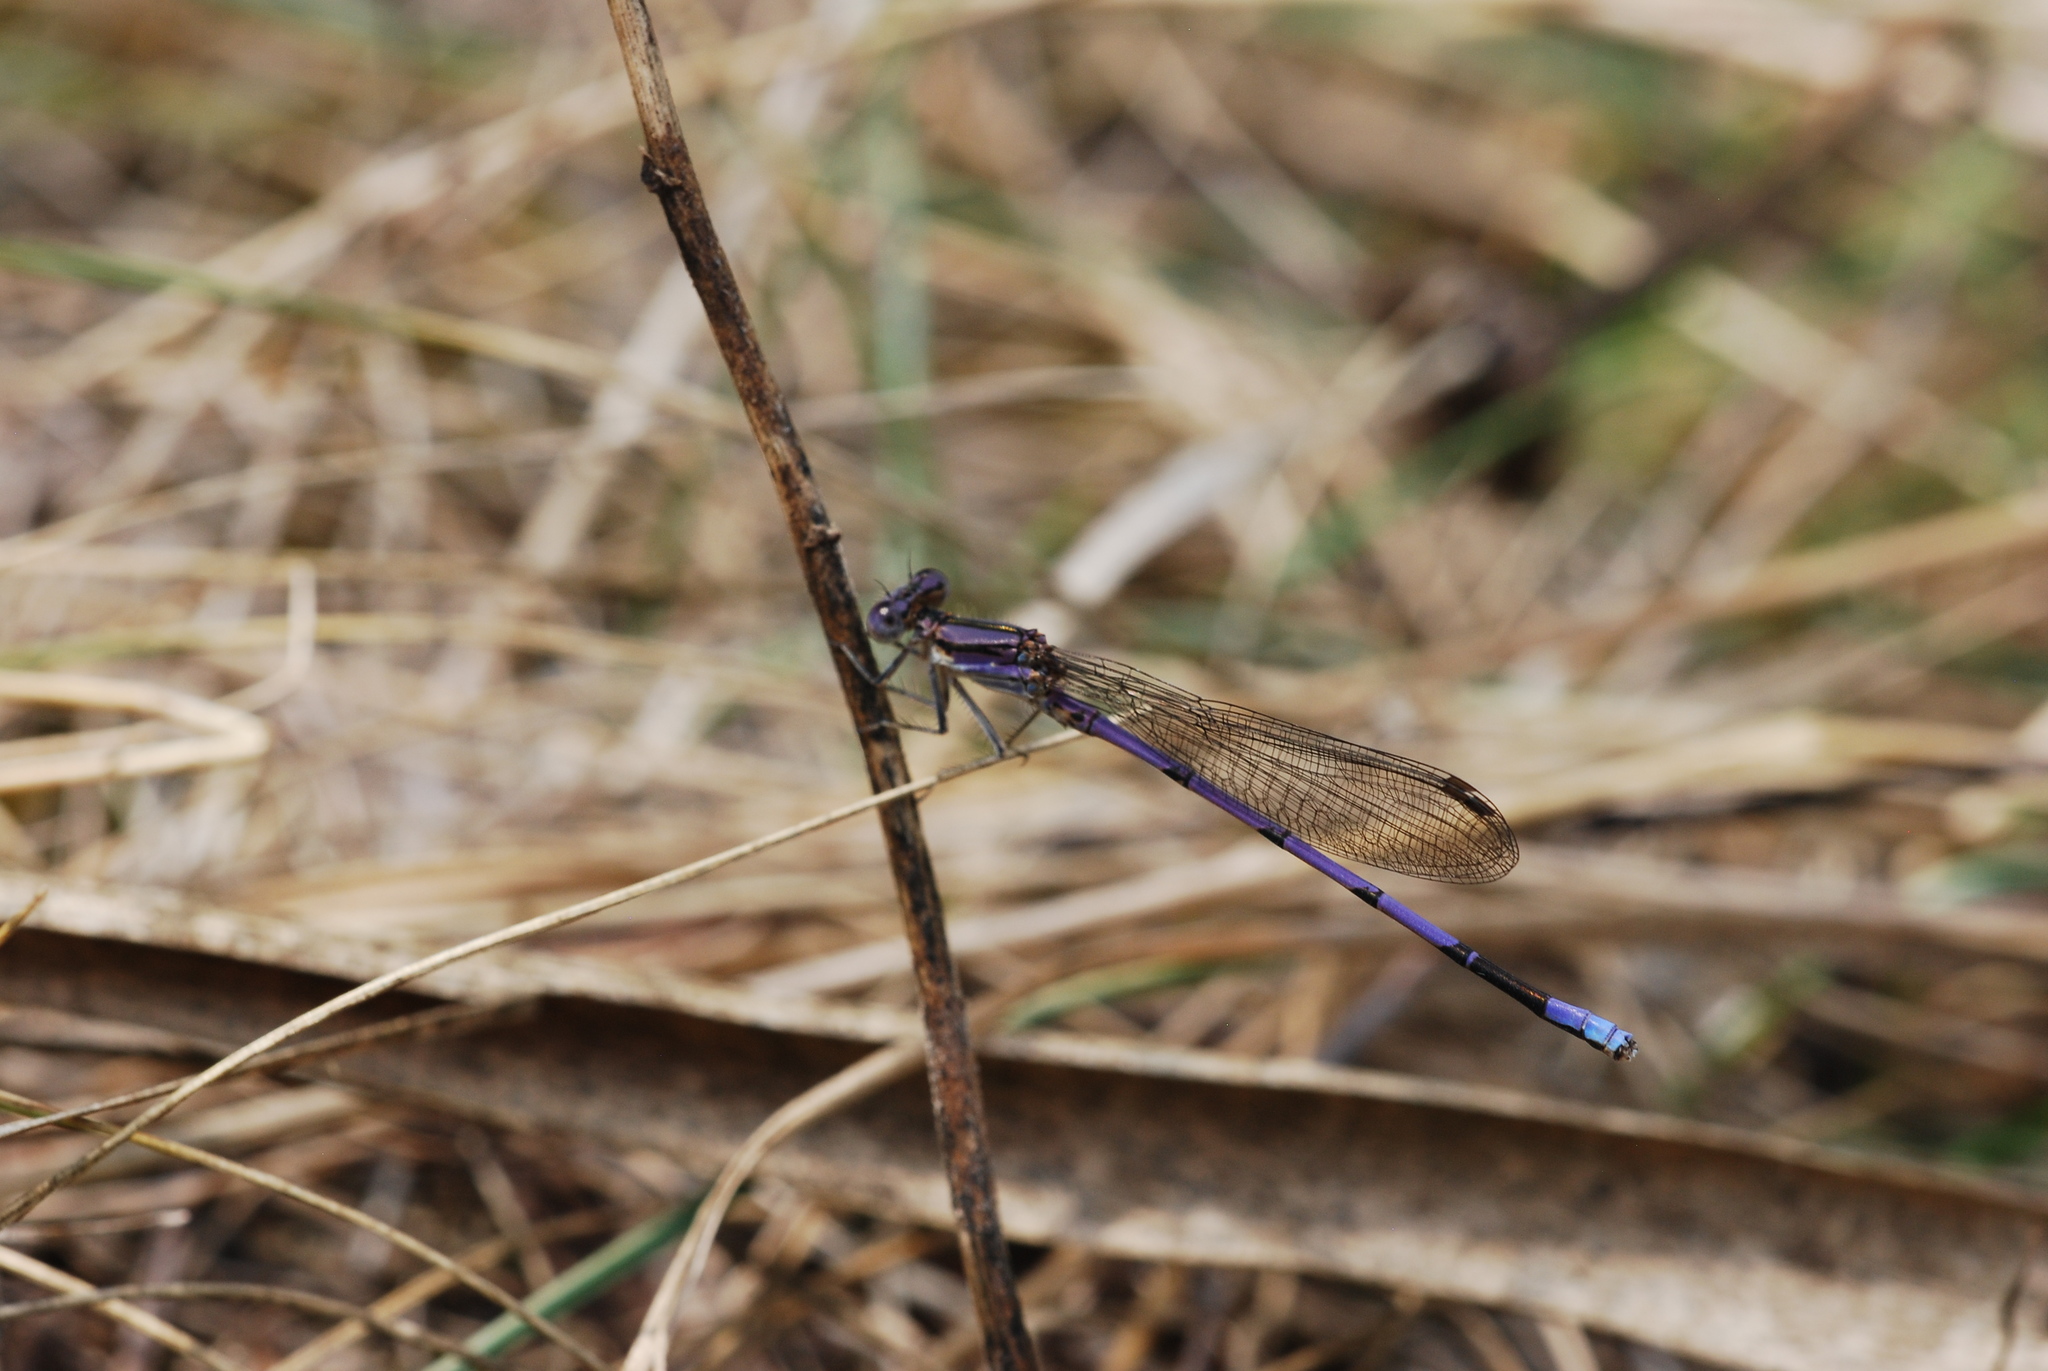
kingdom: Animalia
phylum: Arthropoda
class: Insecta
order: Odonata
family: Coenagrionidae
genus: Argia
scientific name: Argia fumipennis
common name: Variable dancer
